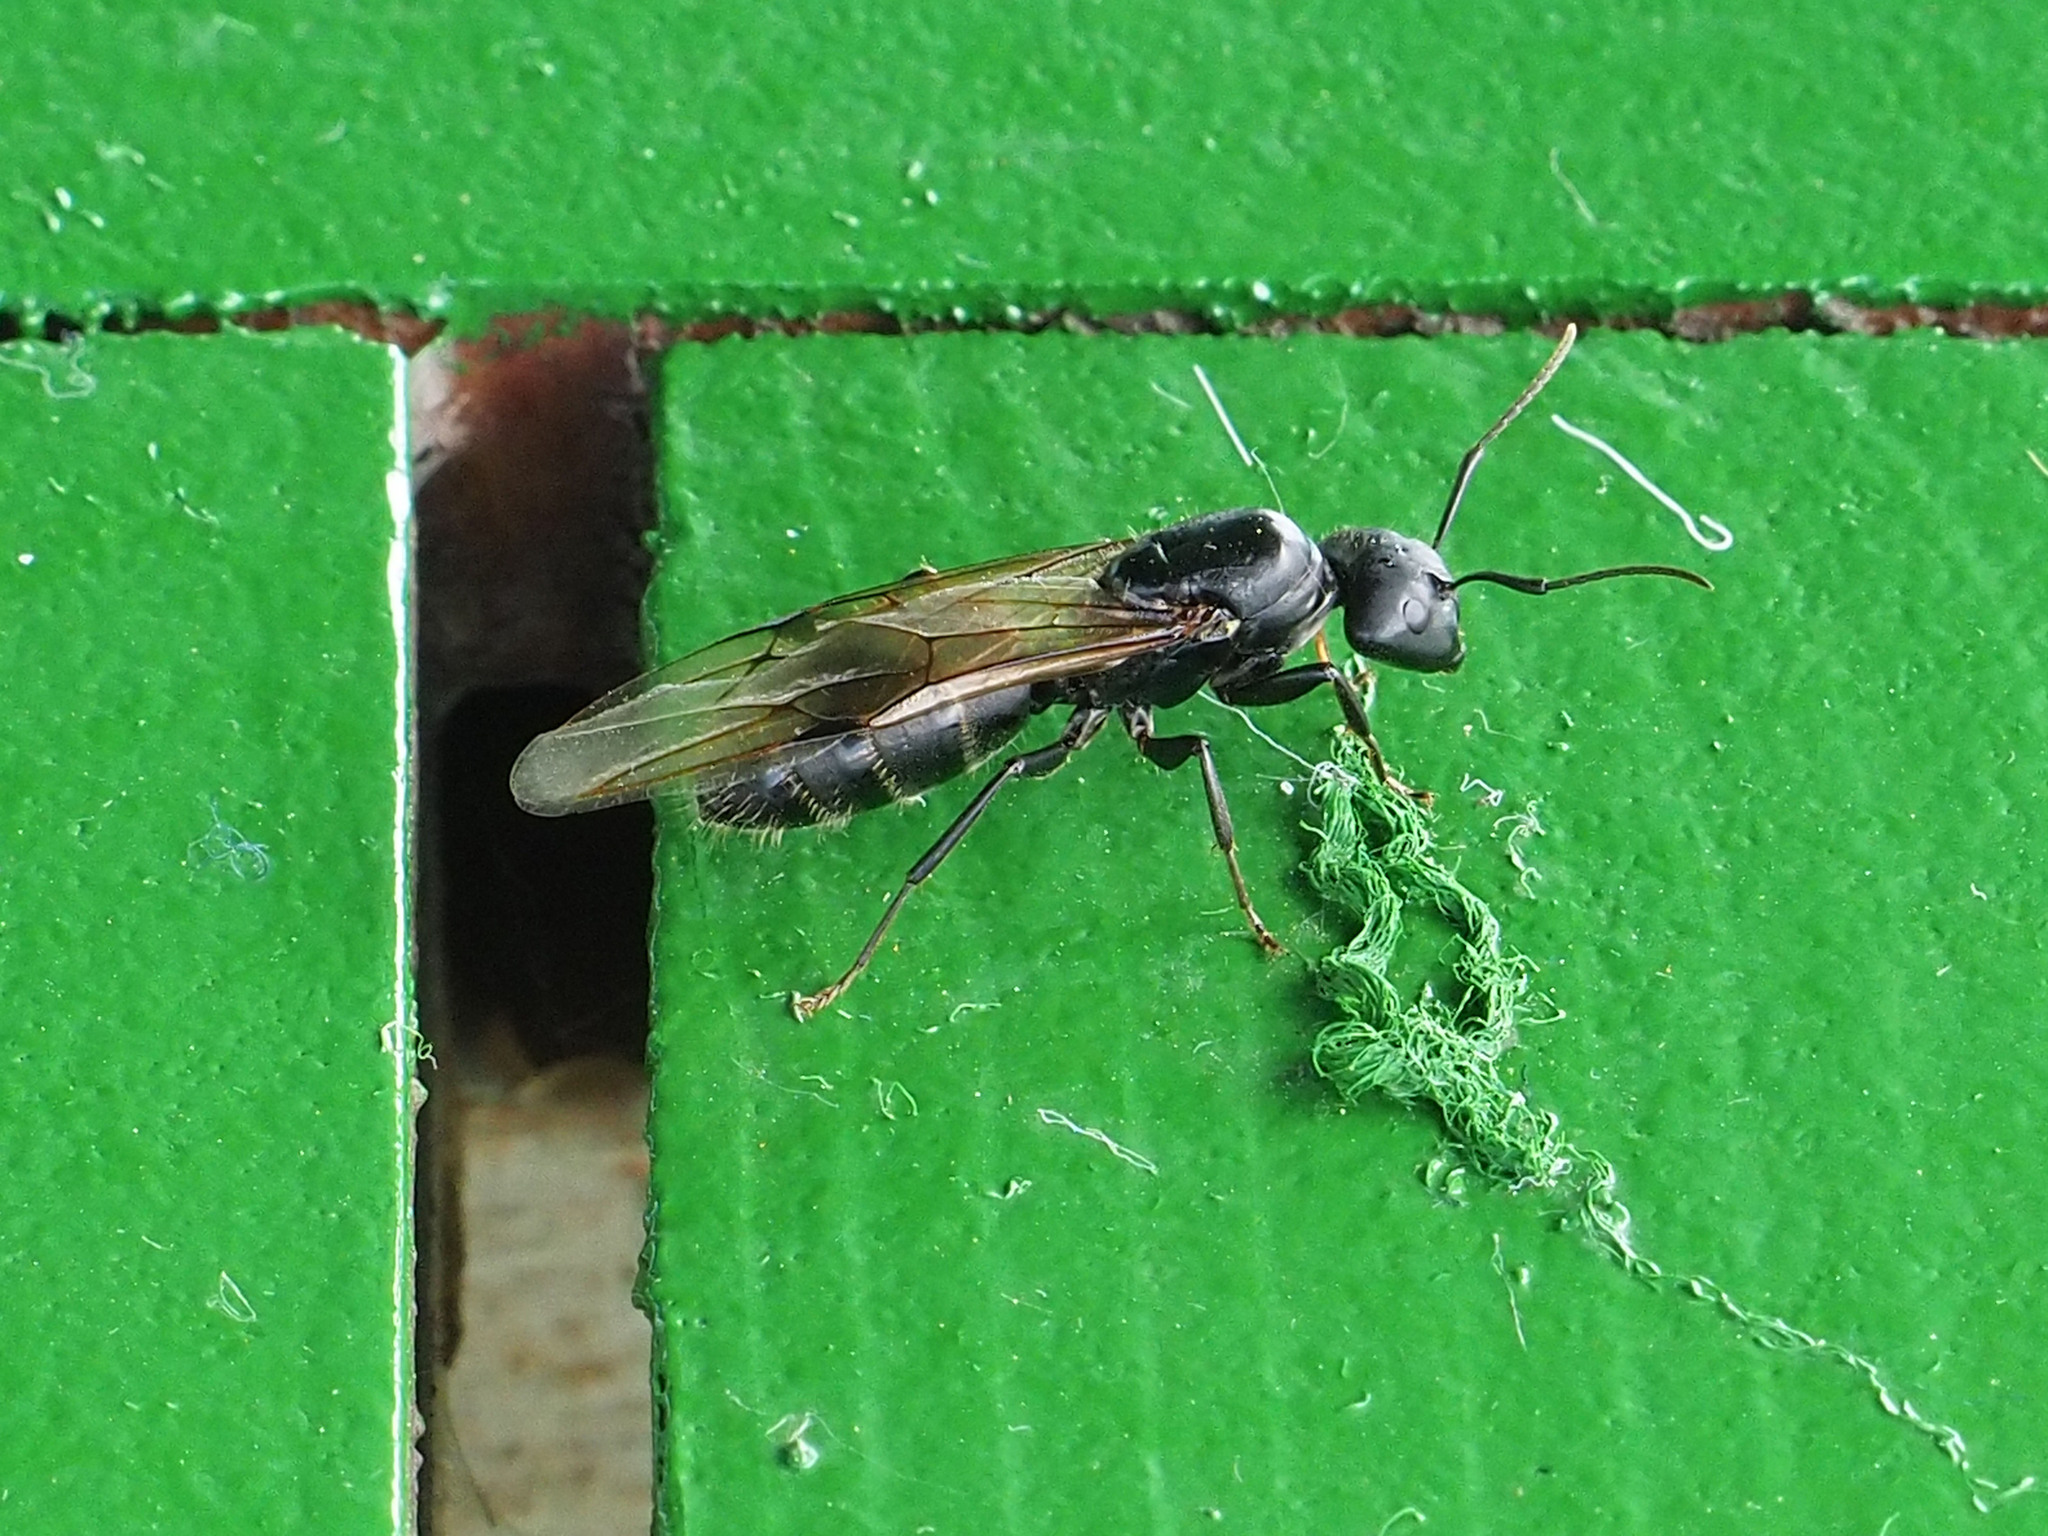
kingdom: Animalia
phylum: Arthropoda
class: Insecta
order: Hymenoptera
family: Formicidae
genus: Camponotus
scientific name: Camponotus vagus
